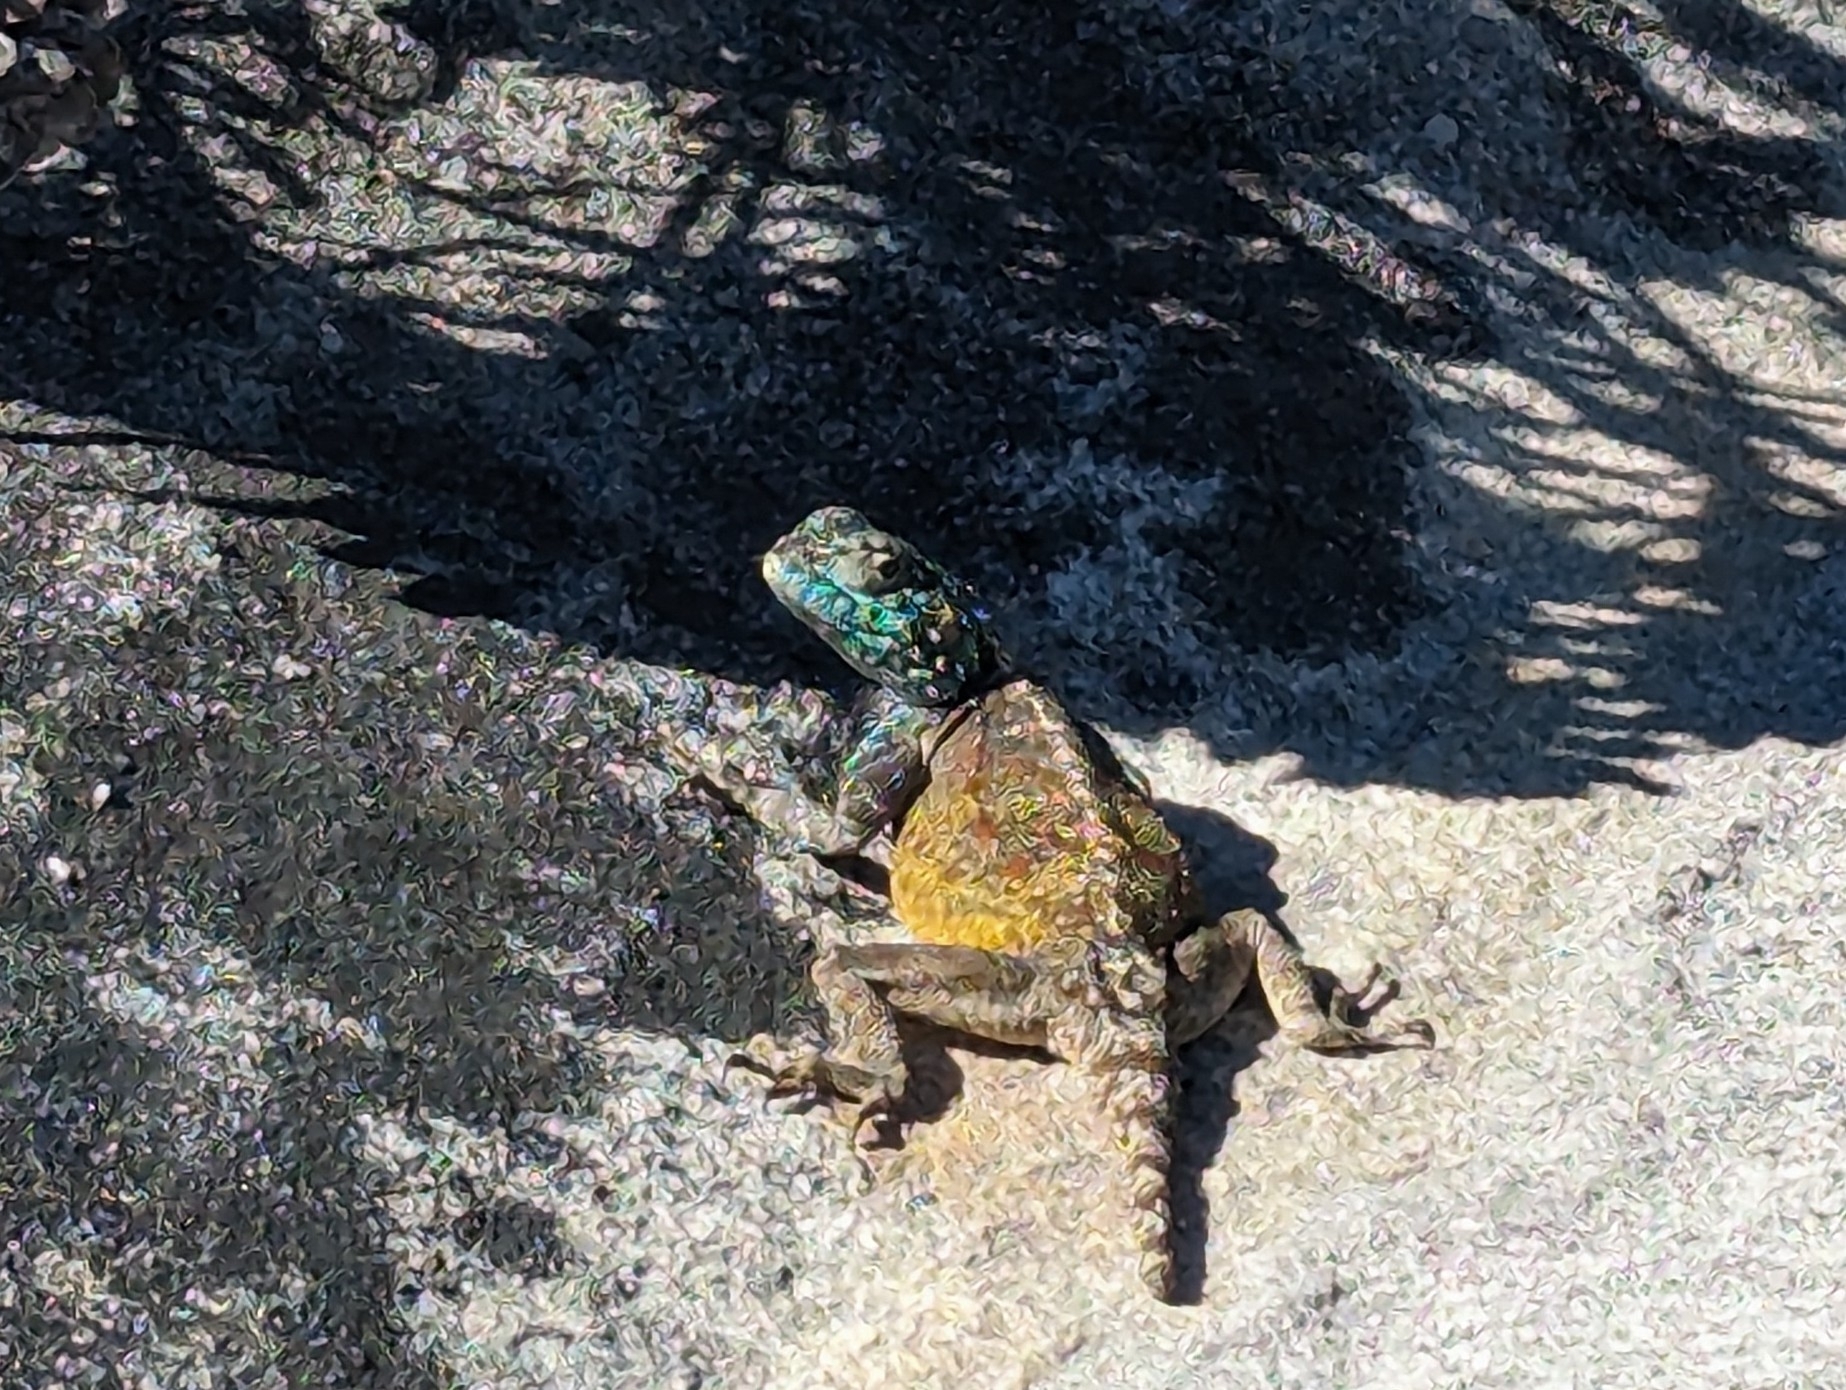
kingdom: Animalia
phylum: Chordata
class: Squamata
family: Agamidae
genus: Agama
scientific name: Agama atra
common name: Southern african rock agama
